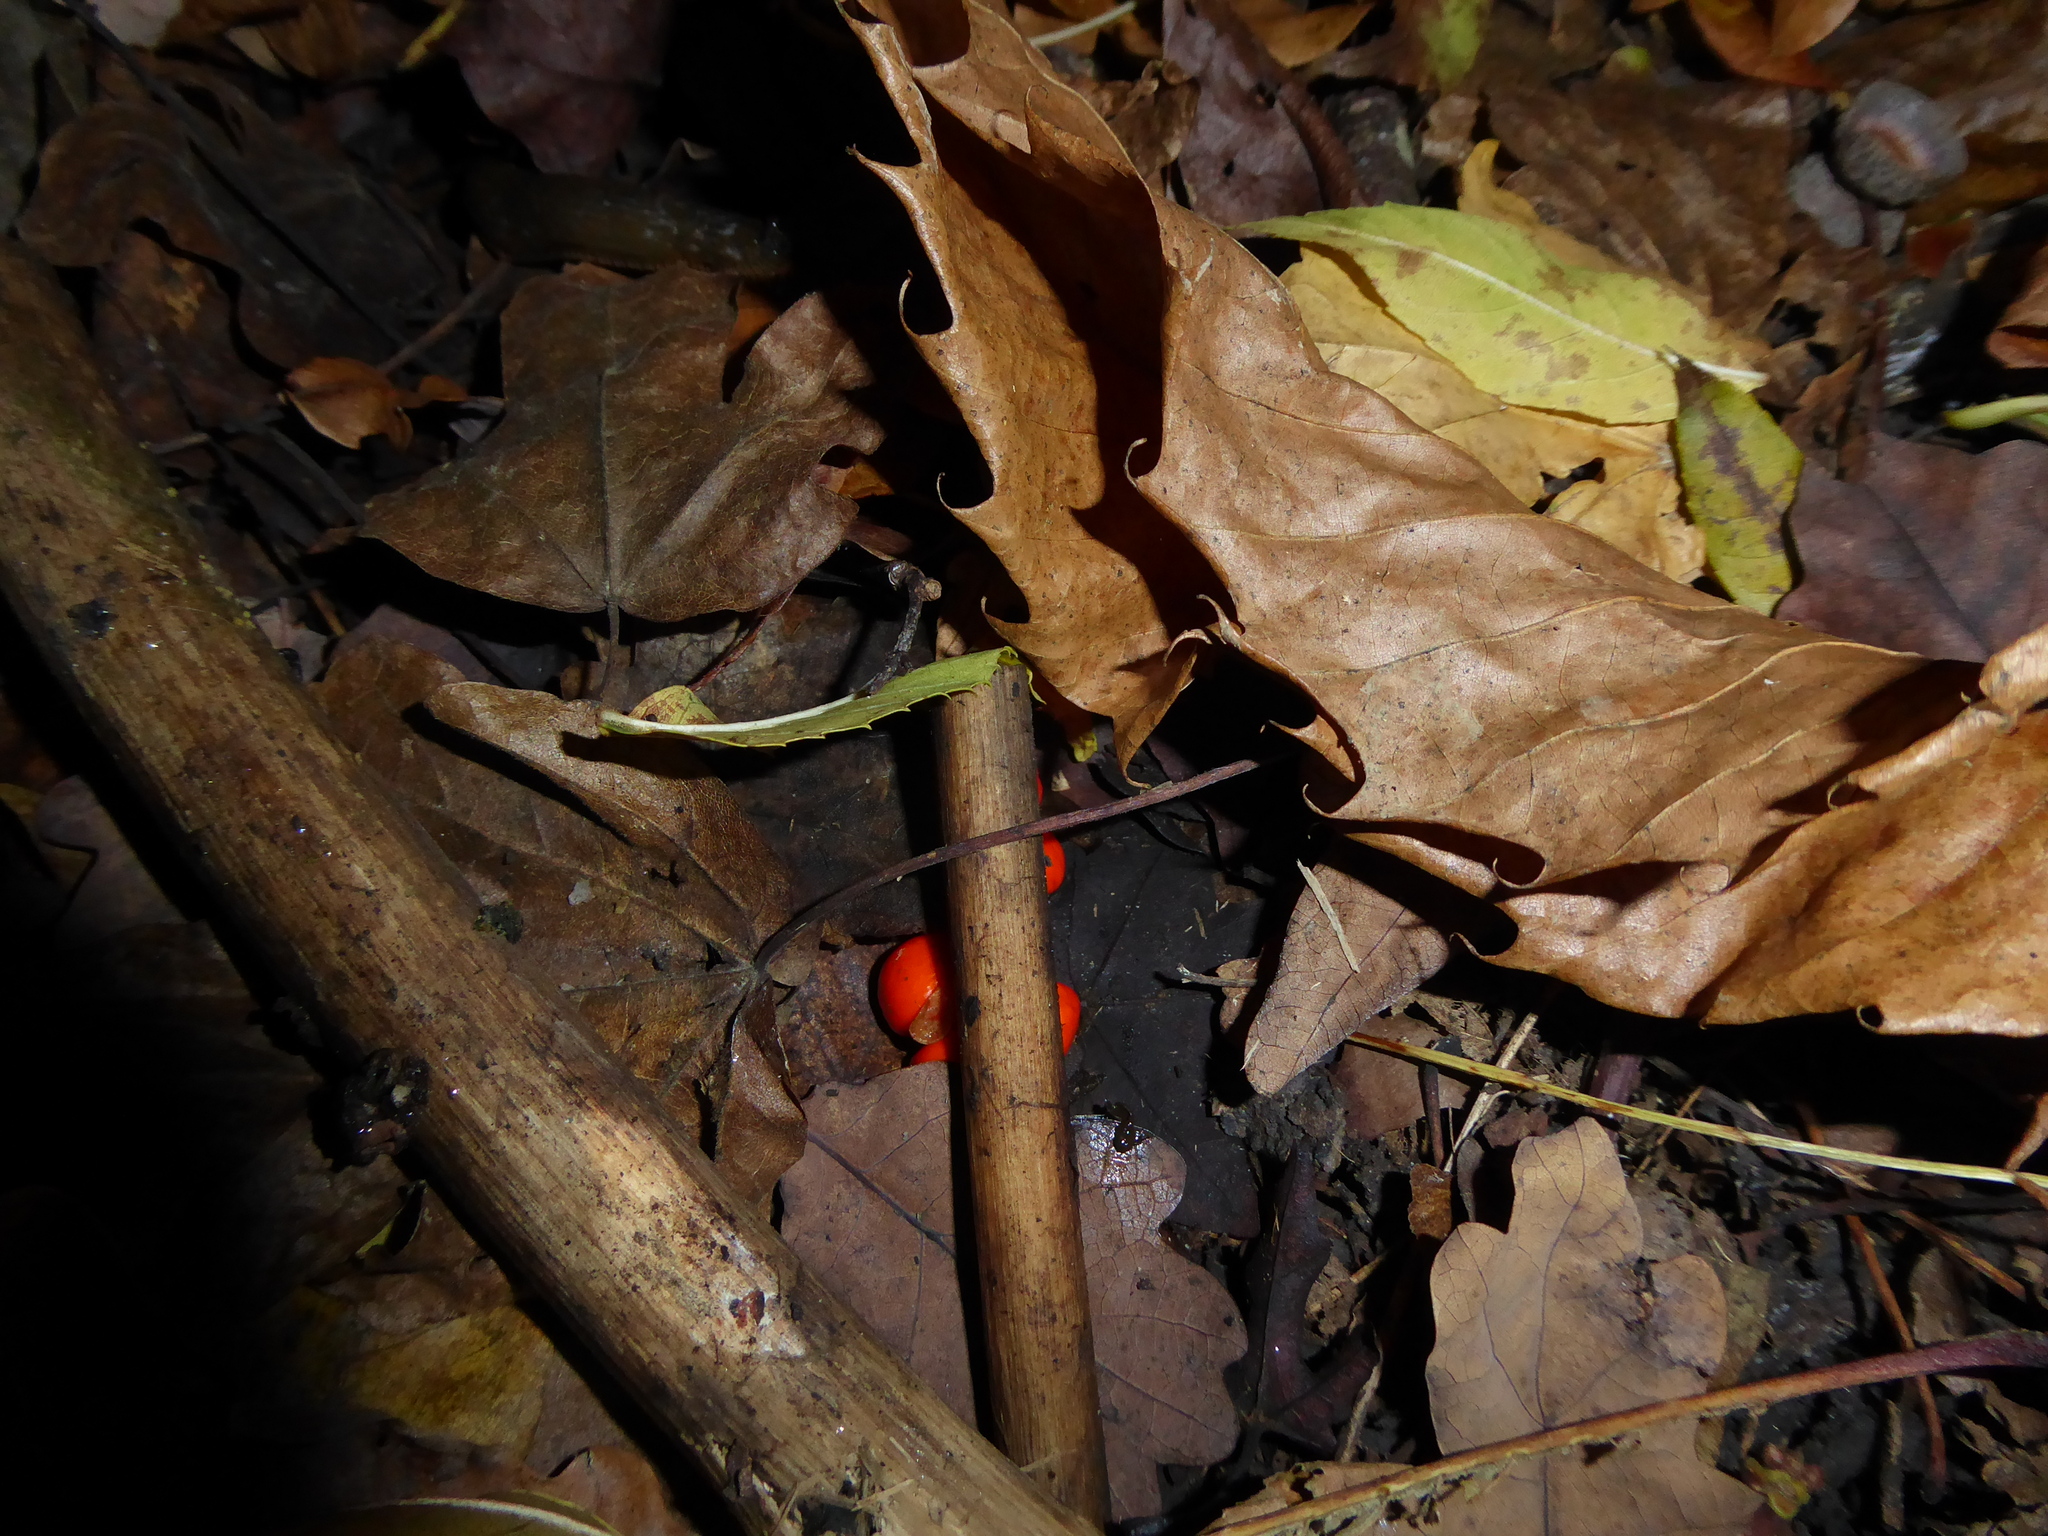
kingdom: Plantae
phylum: Tracheophyta
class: Liliopsida
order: Asparagales
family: Iridaceae
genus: Iris
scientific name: Iris foetidissima
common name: Stinking iris
